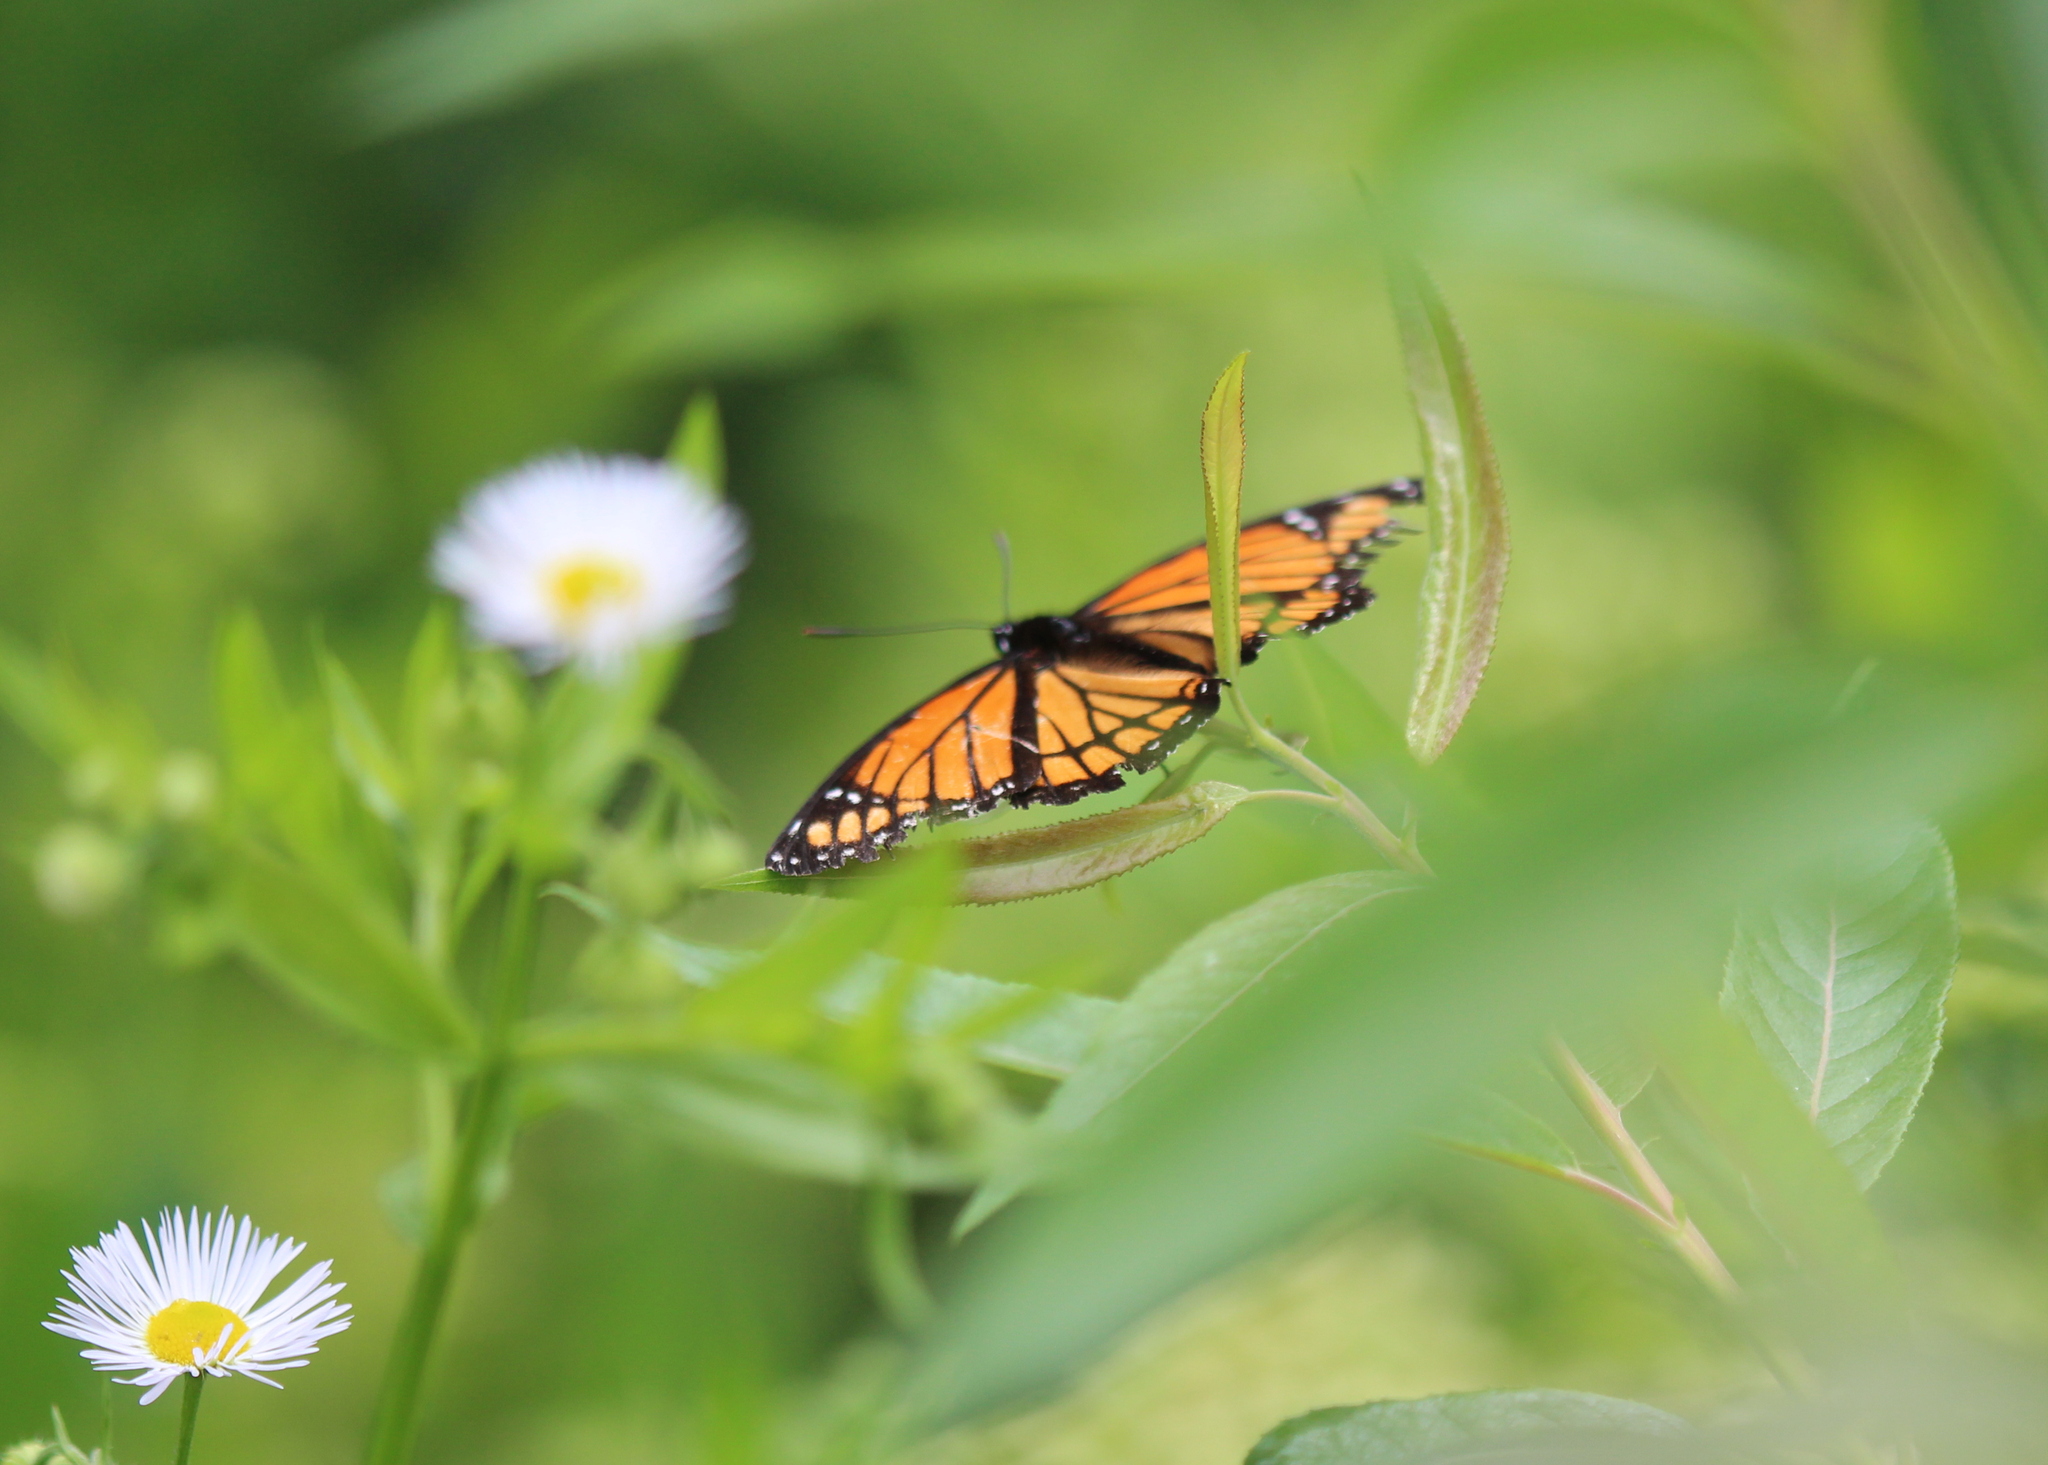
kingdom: Animalia
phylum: Arthropoda
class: Insecta
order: Lepidoptera
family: Nymphalidae
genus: Limenitis
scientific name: Limenitis archippus
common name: Viceroy
